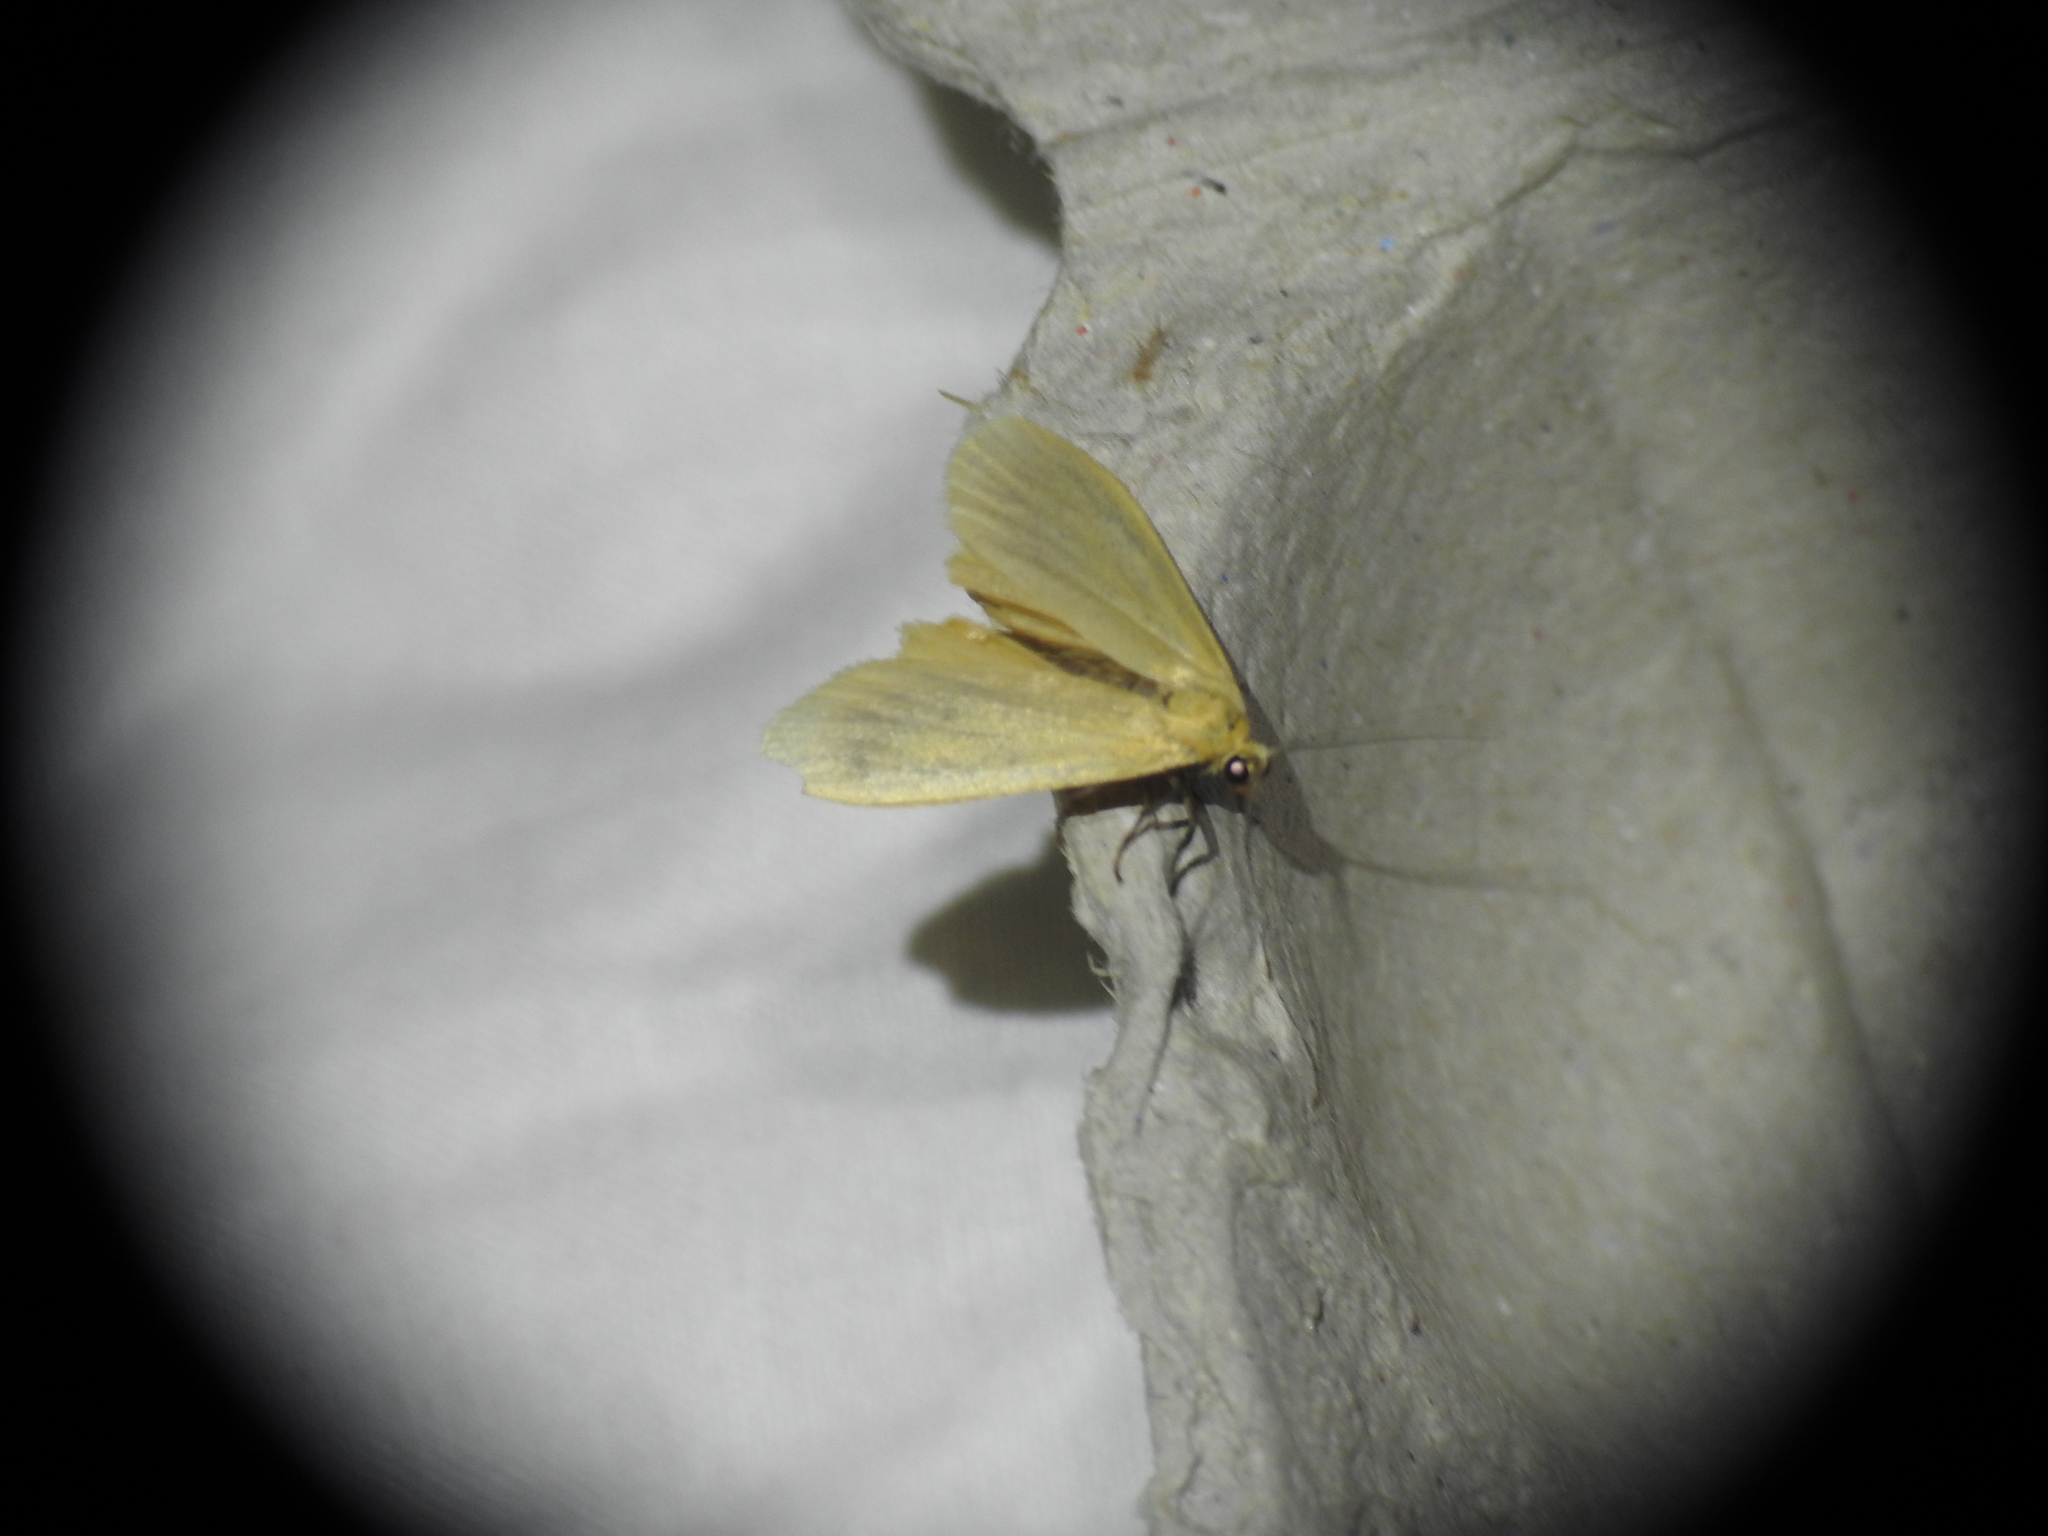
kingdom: Animalia
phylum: Arthropoda
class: Insecta
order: Lepidoptera
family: Erebidae
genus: Wittia
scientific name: Wittia sororcula
